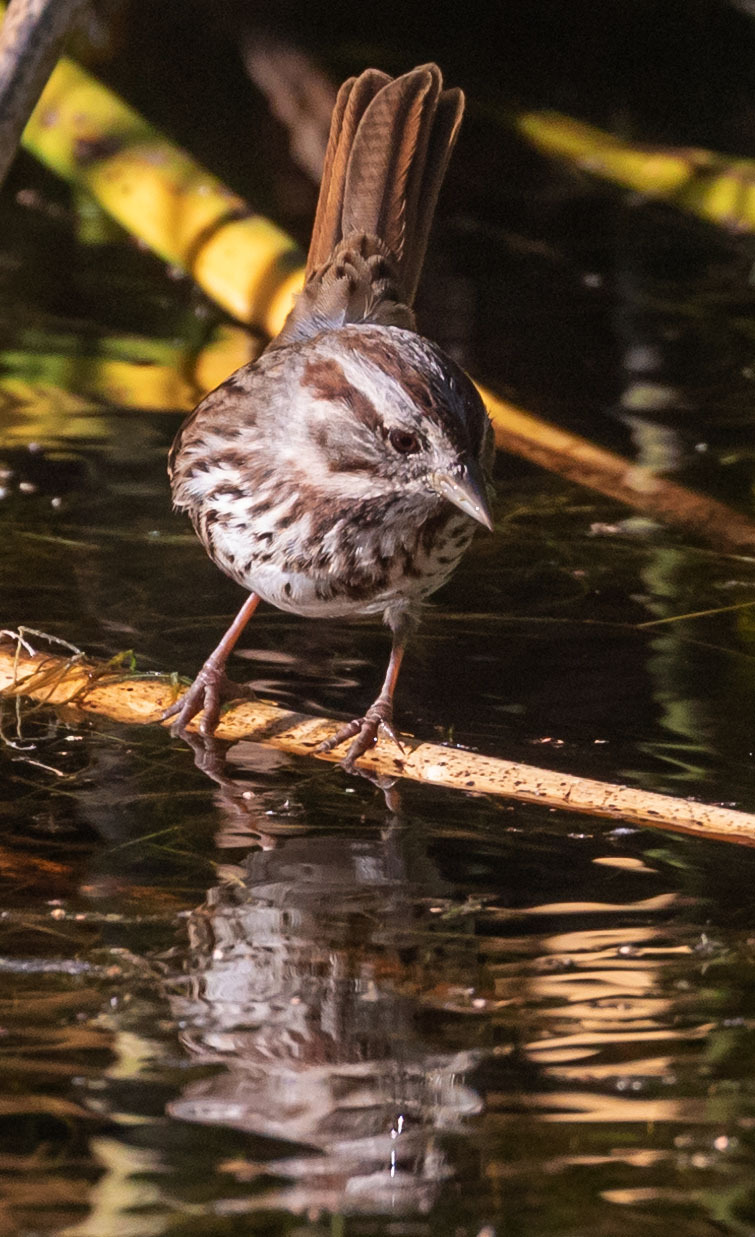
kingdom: Animalia
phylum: Chordata
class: Aves
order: Passeriformes
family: Passerellidae
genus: Melospiza
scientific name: Melospiza melodia
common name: Song sparrow
